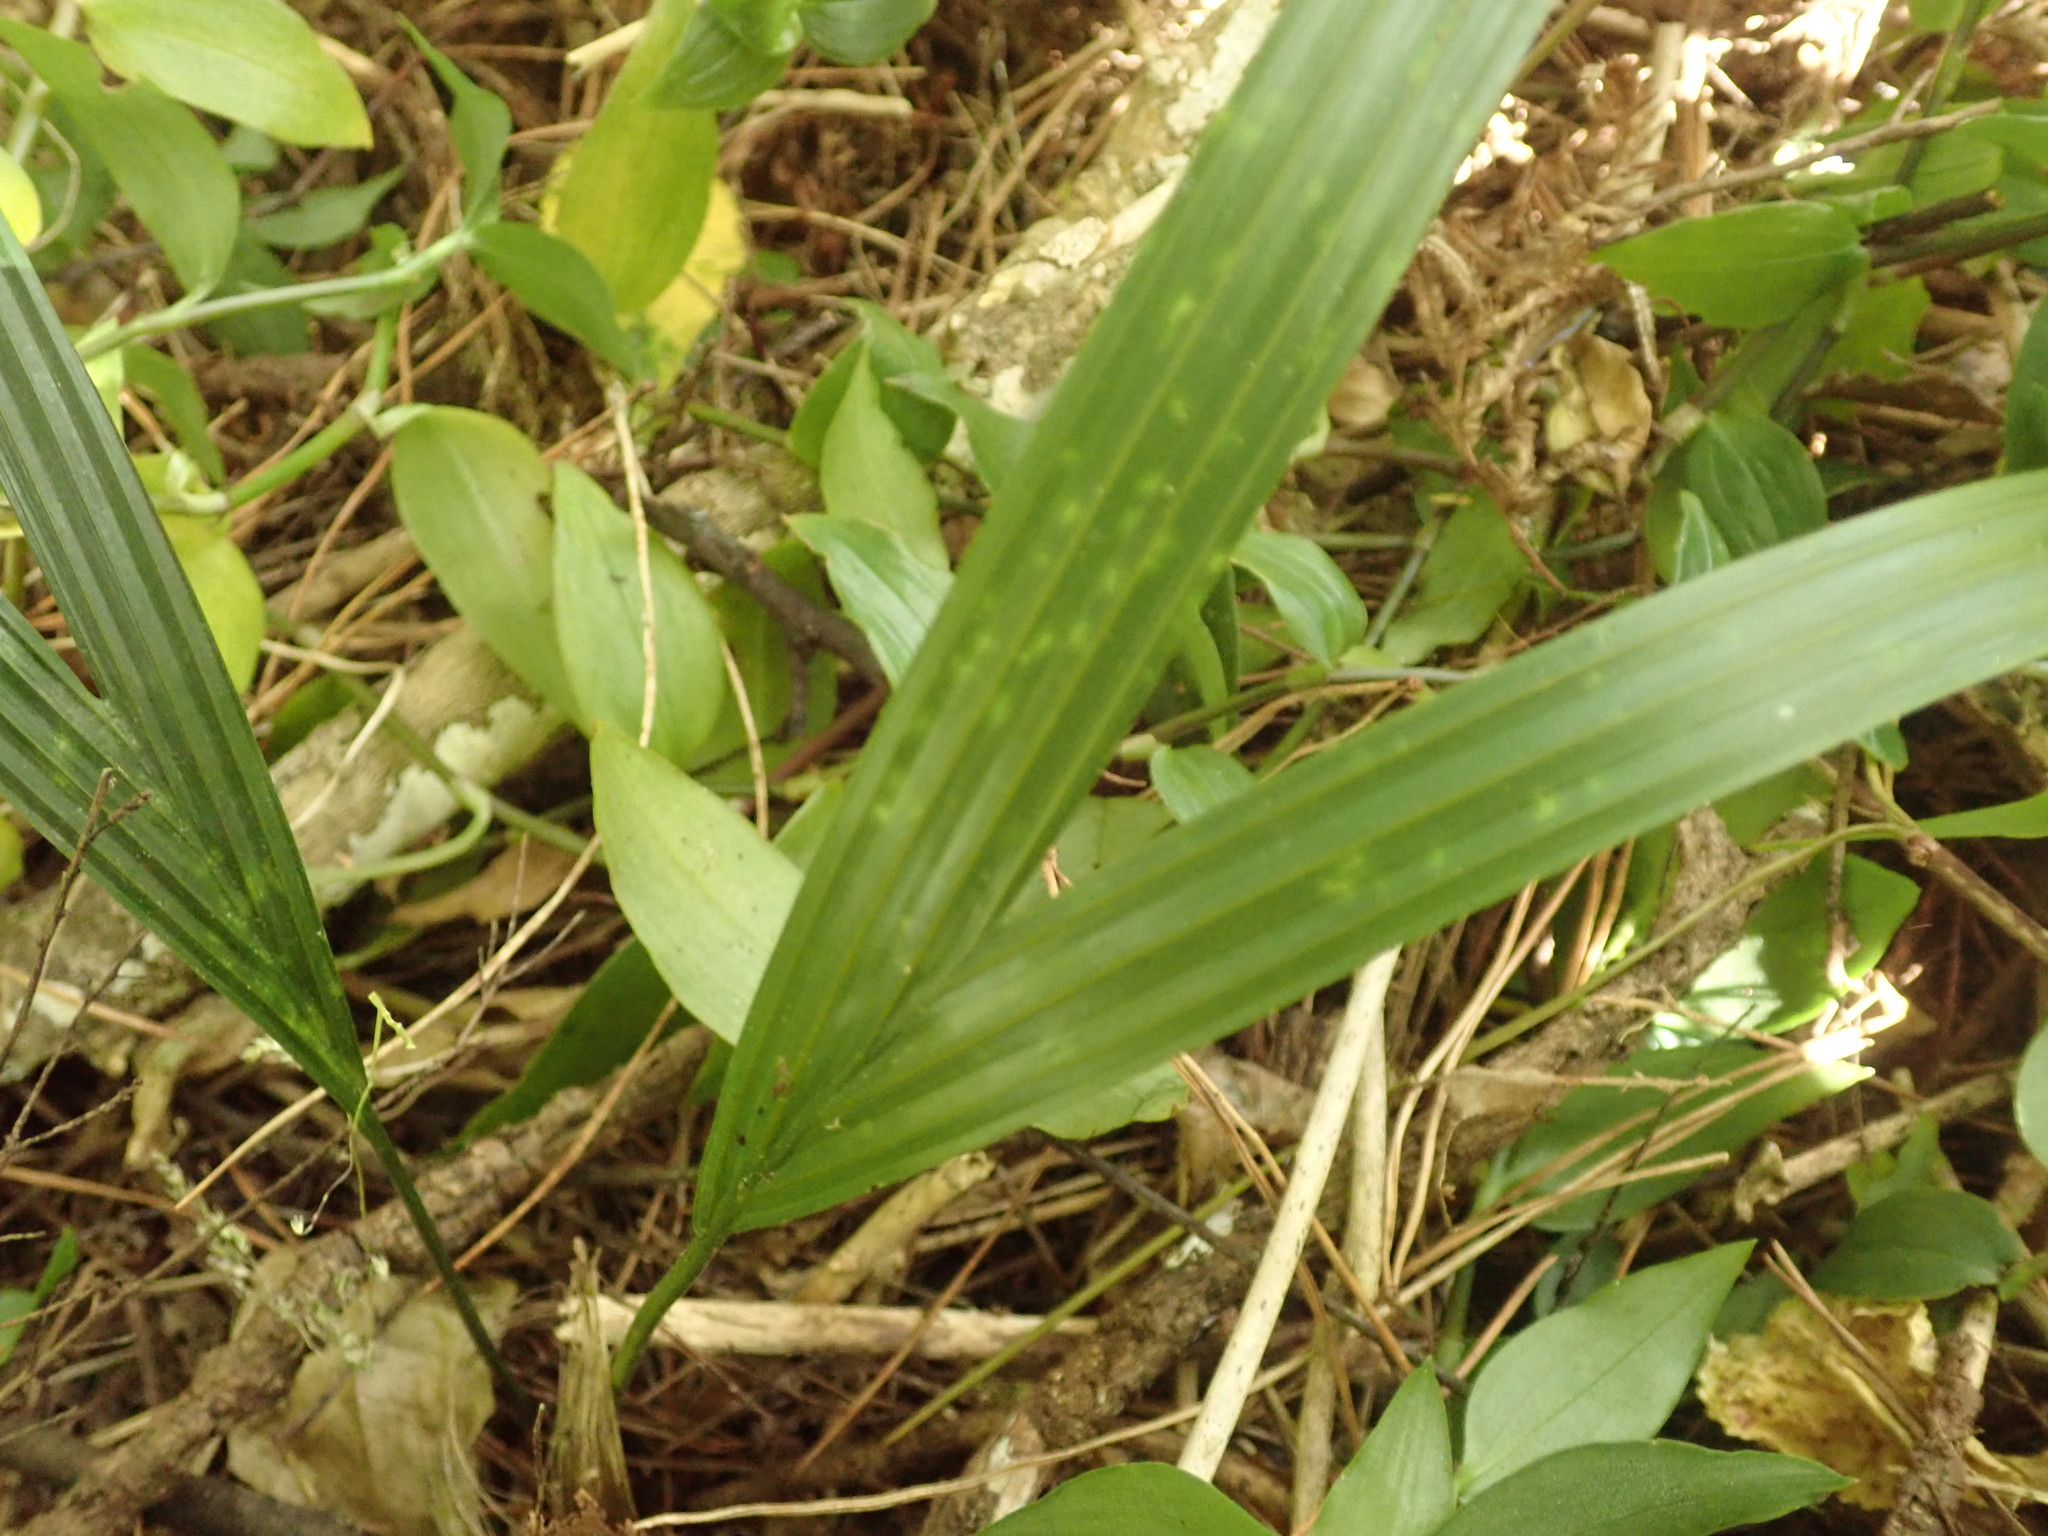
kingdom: Plantae
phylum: Tracheophyta
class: Liliopsida
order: Arecales
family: Arecaceae
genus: Rhopalostylis
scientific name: Rhopalostylis sapida
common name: Feather-duster palm
